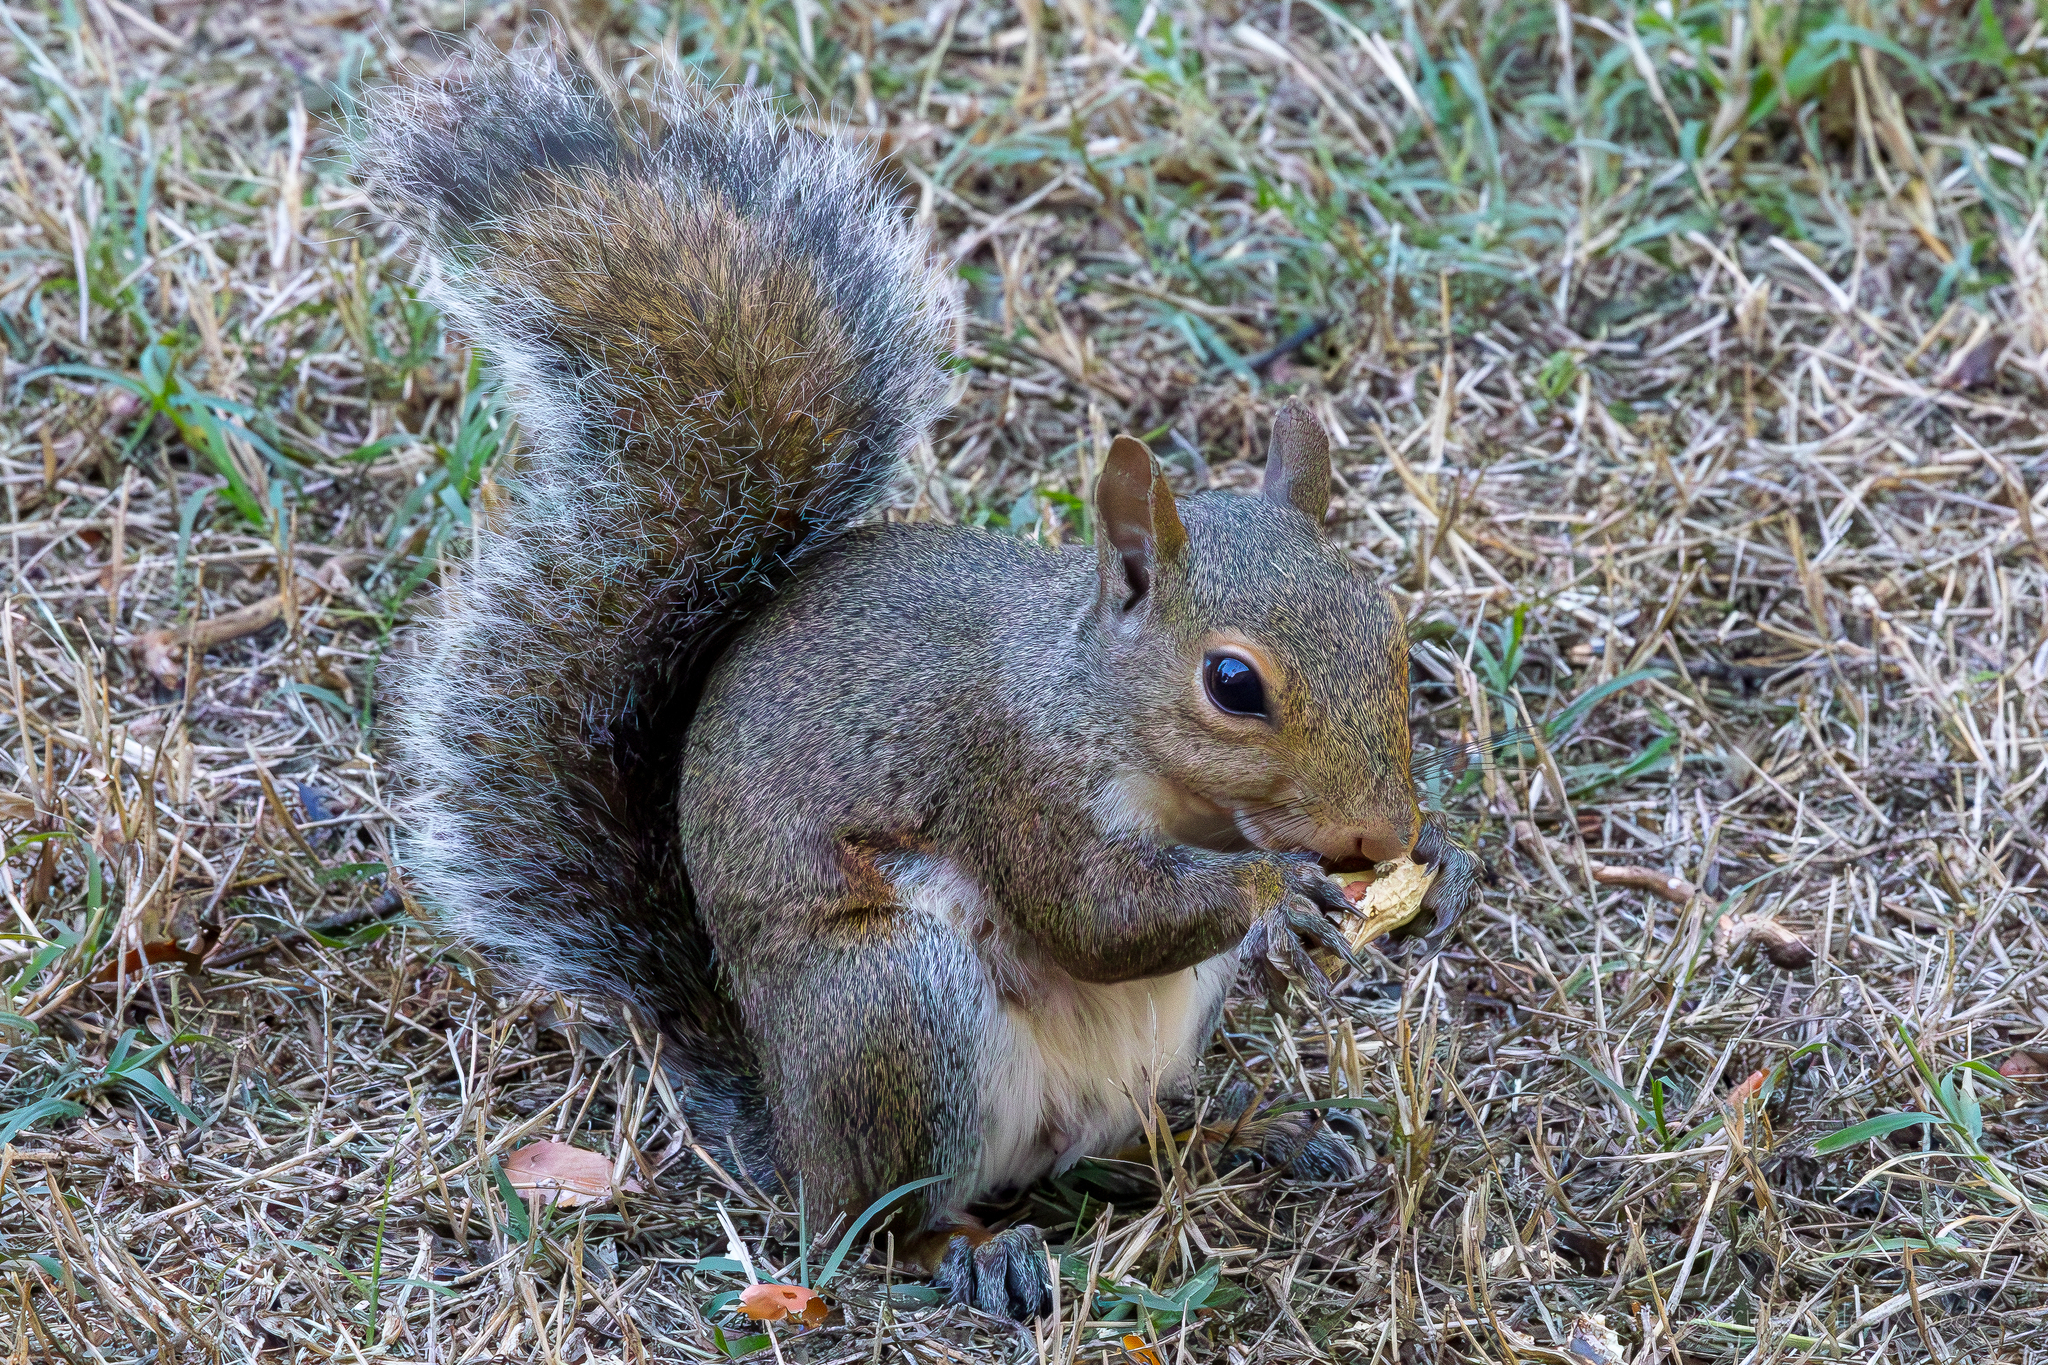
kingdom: Animalia
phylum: Chordata
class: Mammalia
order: Rodentia
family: Sciuridae
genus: Sciurus
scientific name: Sciurus carolinensis
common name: Eastern gray squirrel
